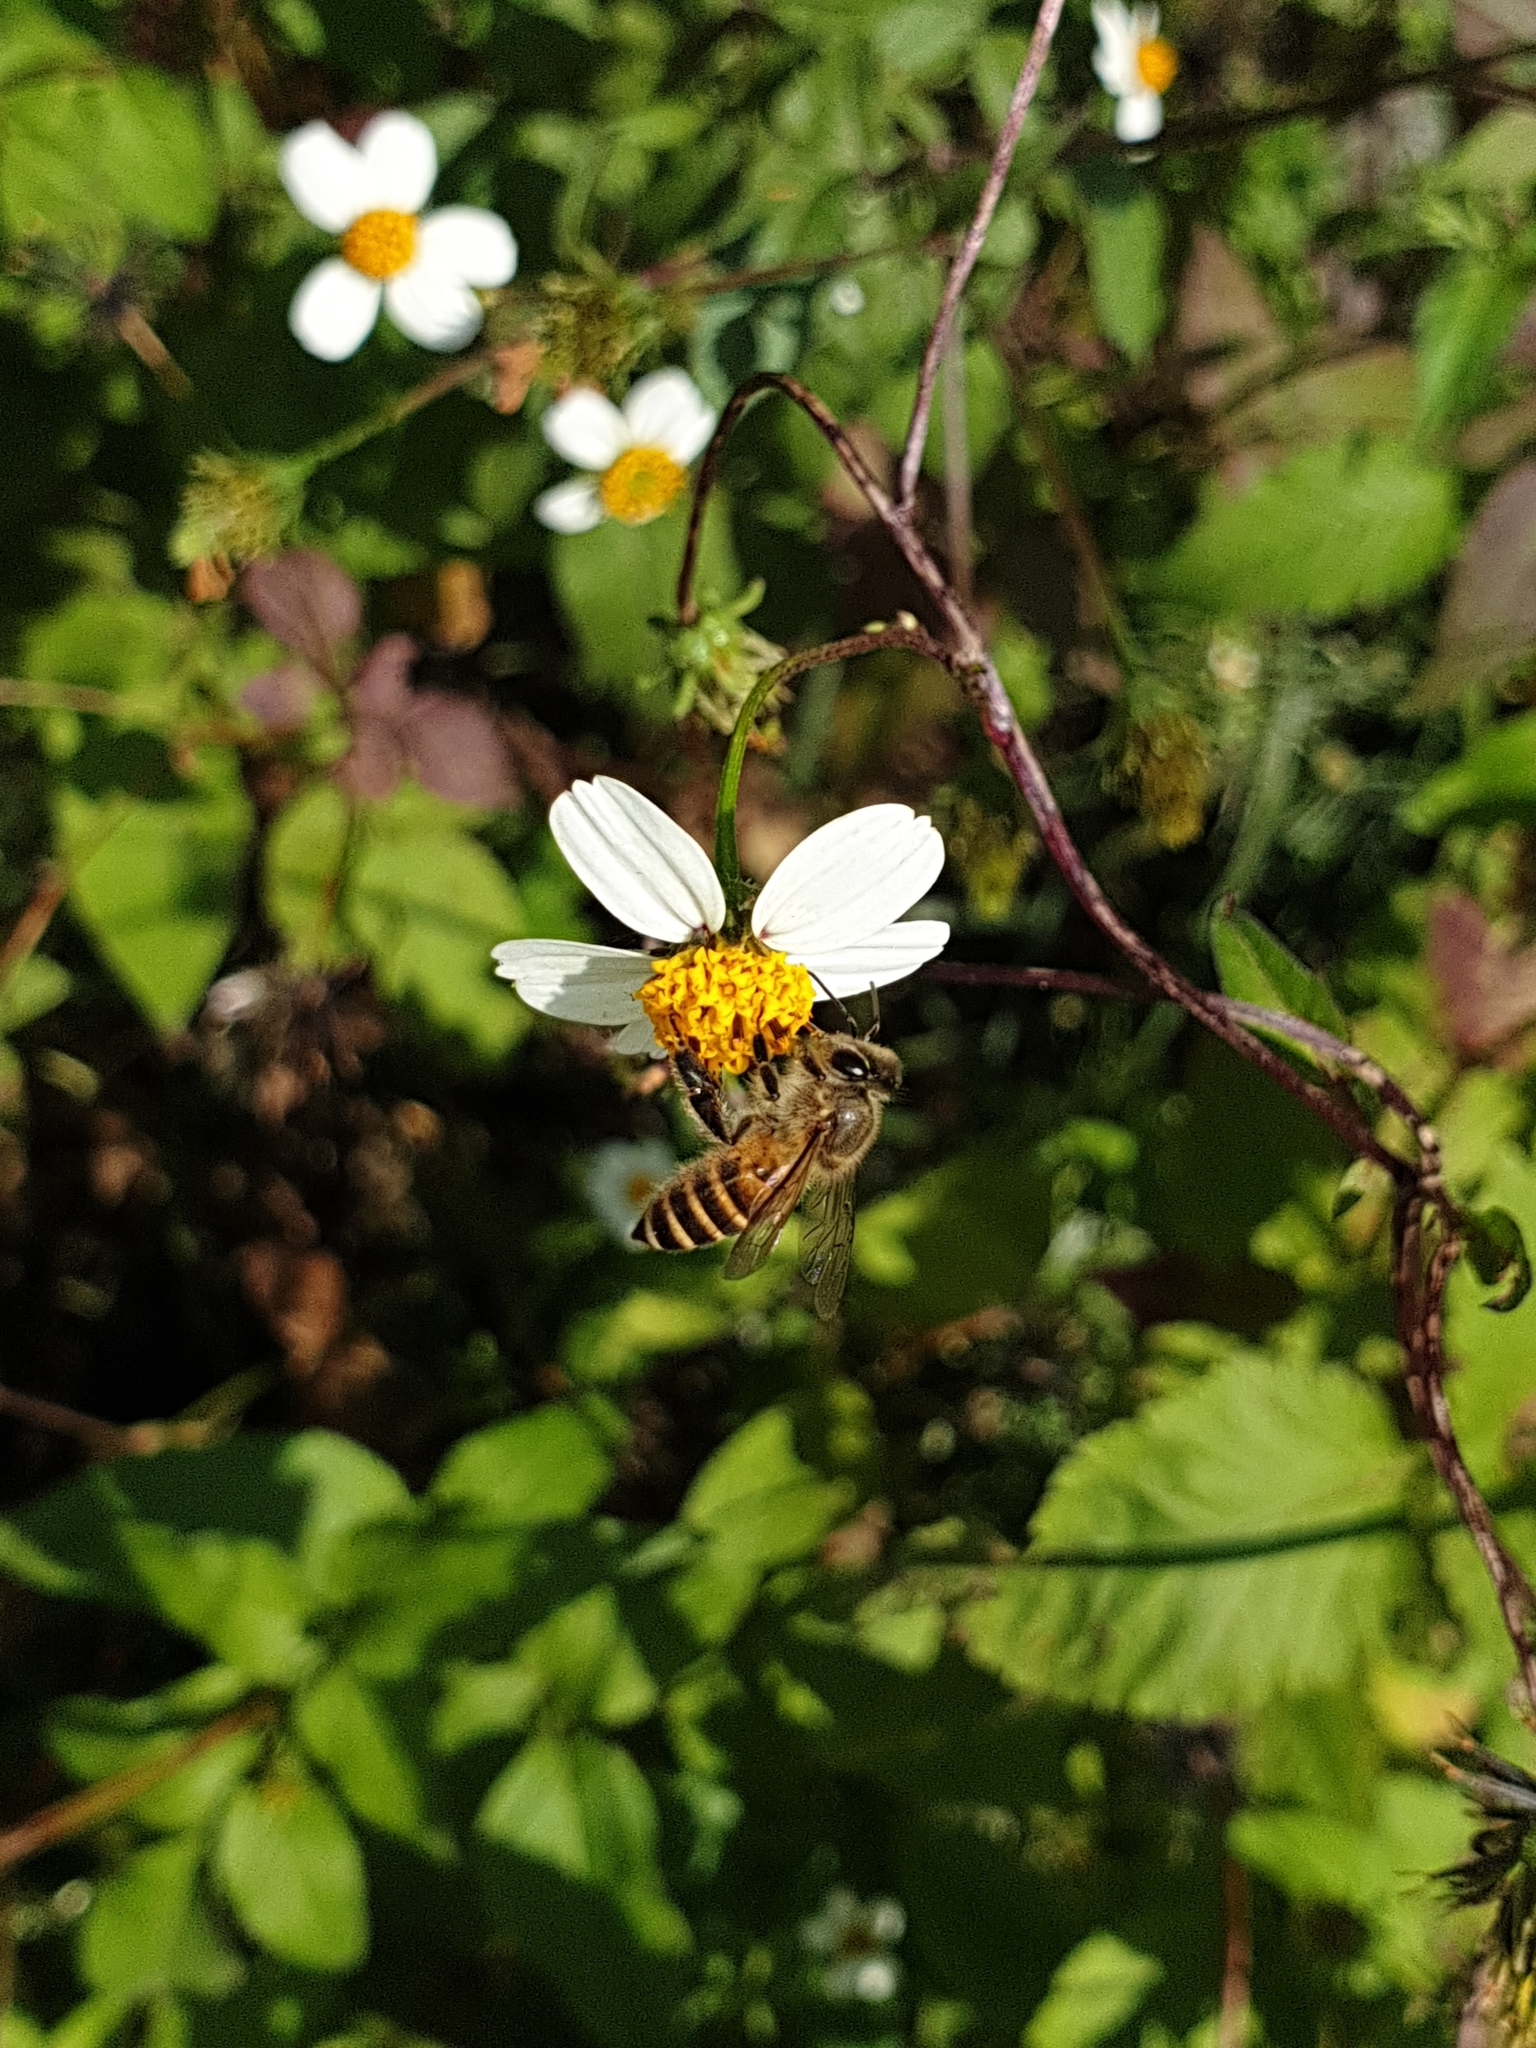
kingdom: Animalia
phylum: Arthropoda
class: Insecta
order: Hymenoptera
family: Apidae
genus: Apis
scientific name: Apis cerana
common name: Honey bee
